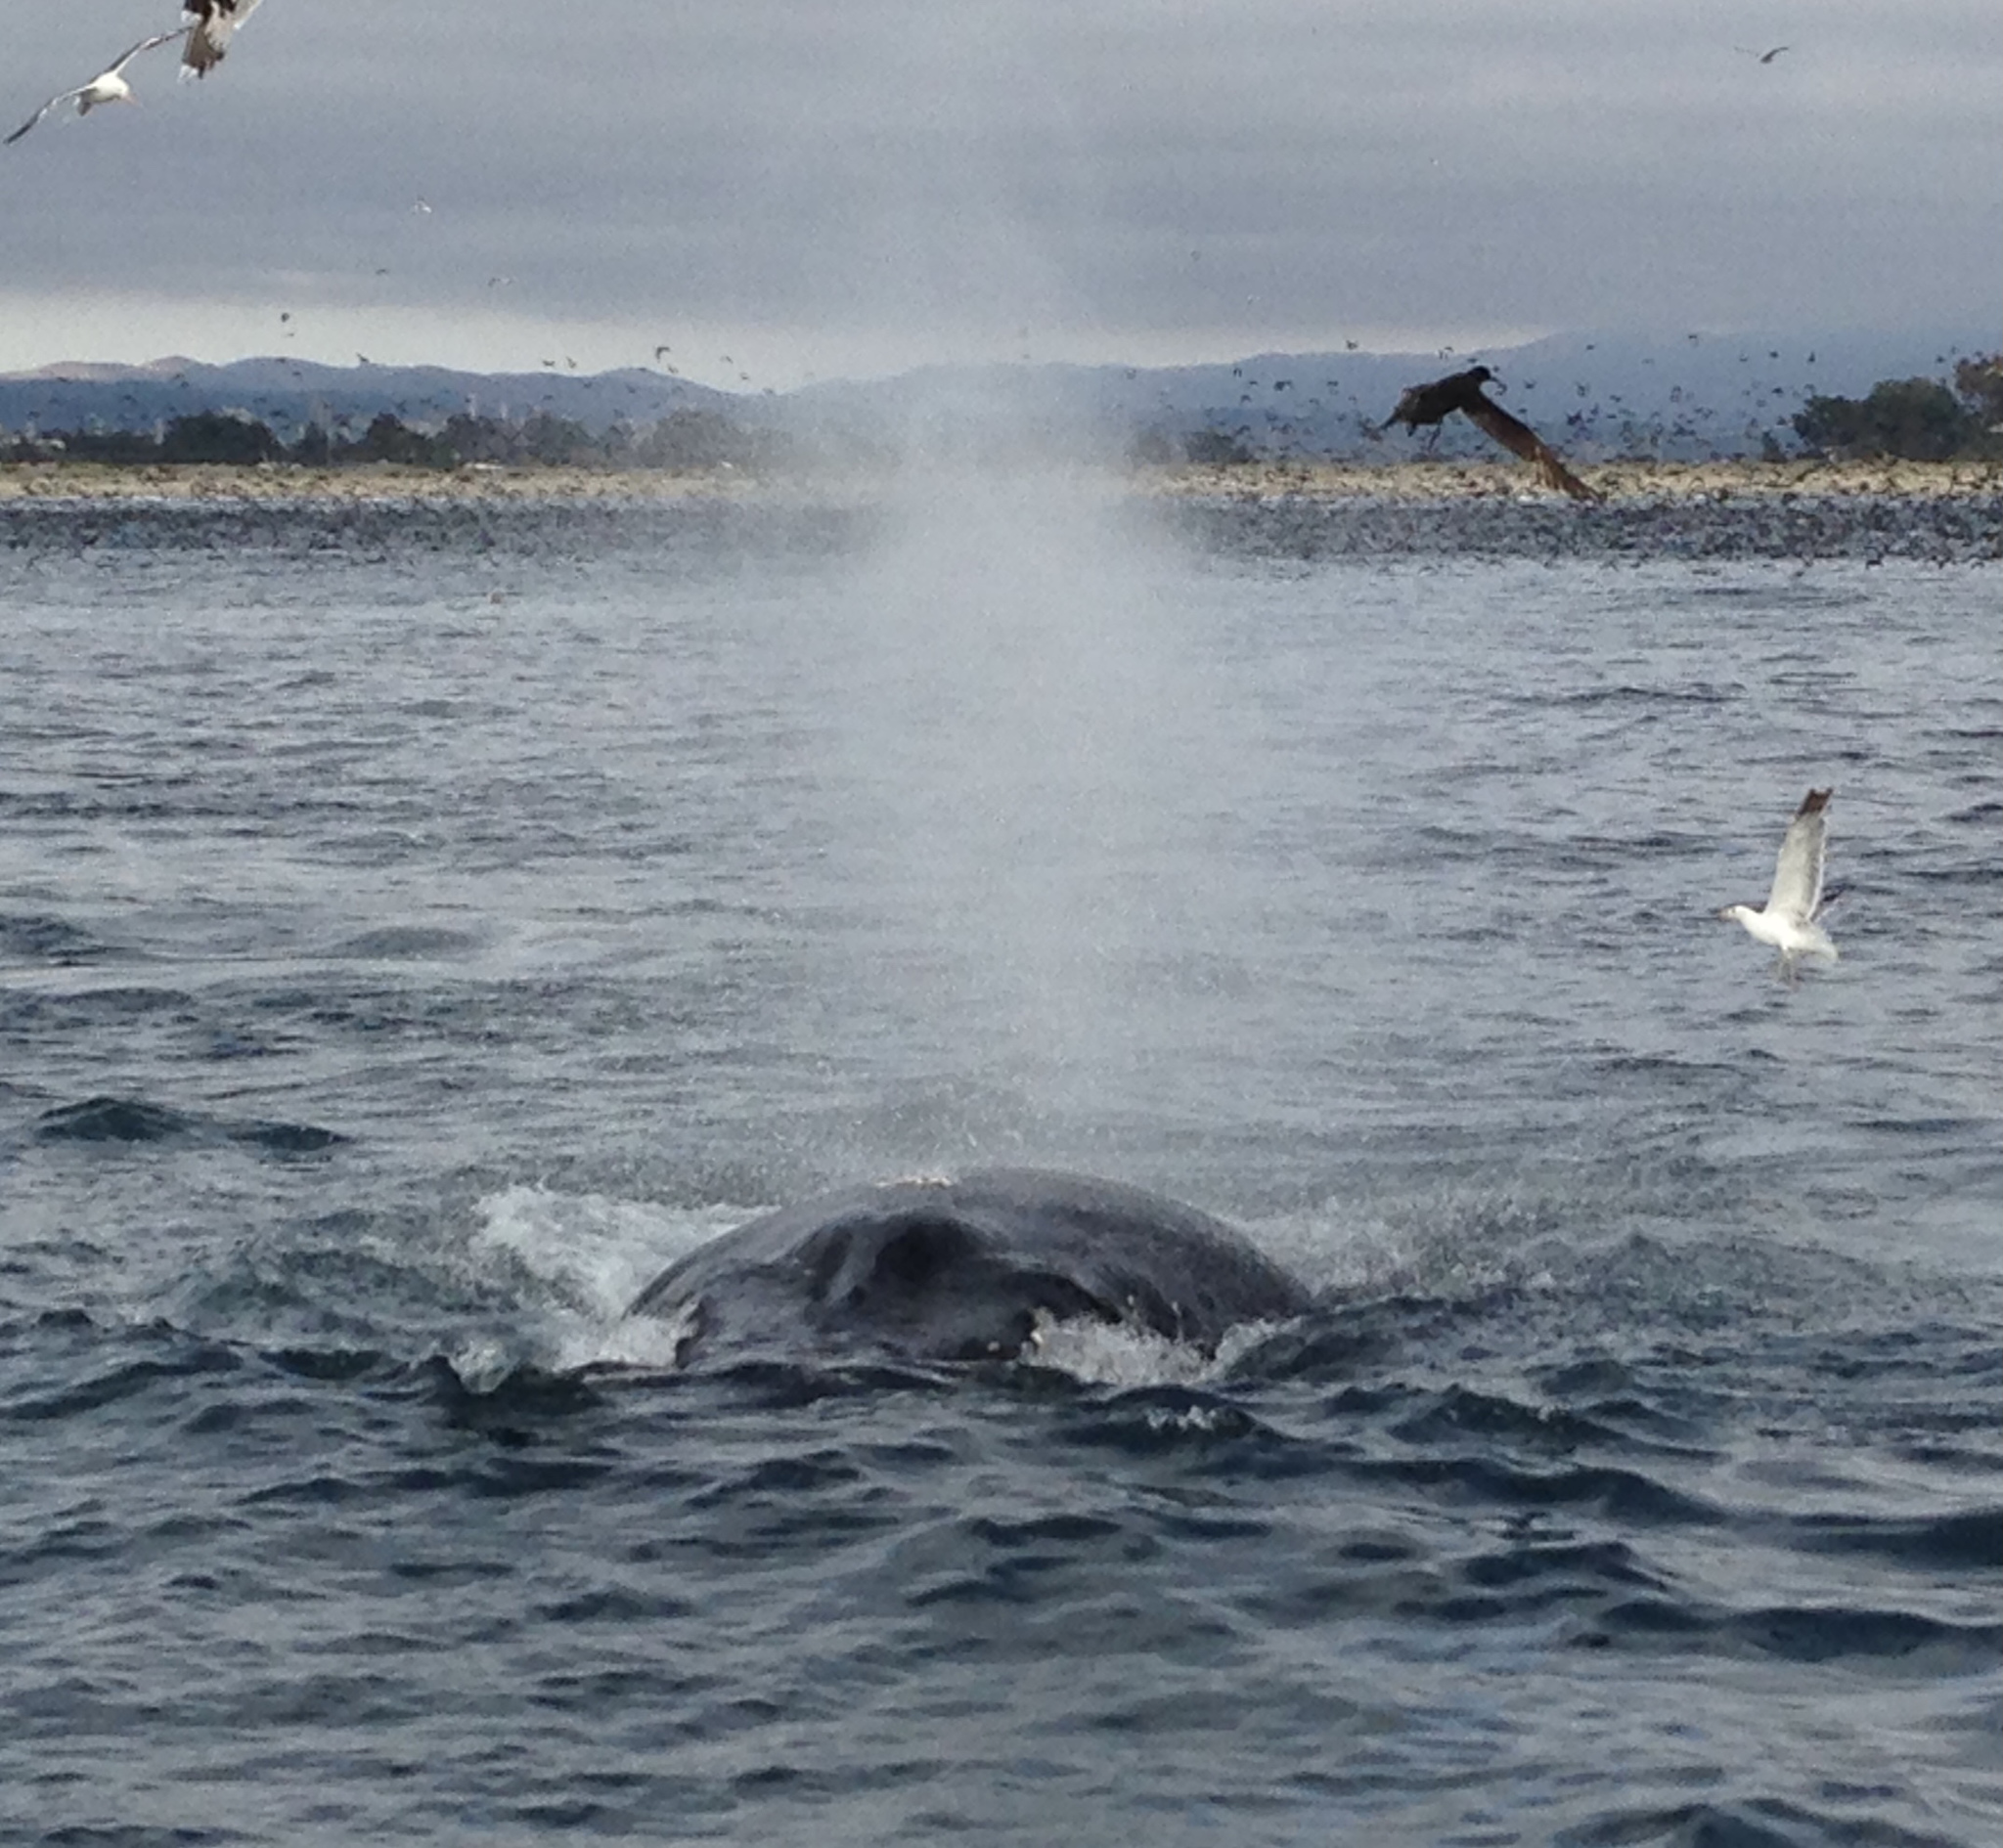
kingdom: Animalia
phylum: Chordata
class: Mammalia
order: Cetacea
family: Balaenopteridae
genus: Megaptera
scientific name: Megaptera novaeangliae
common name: Humpback whale
